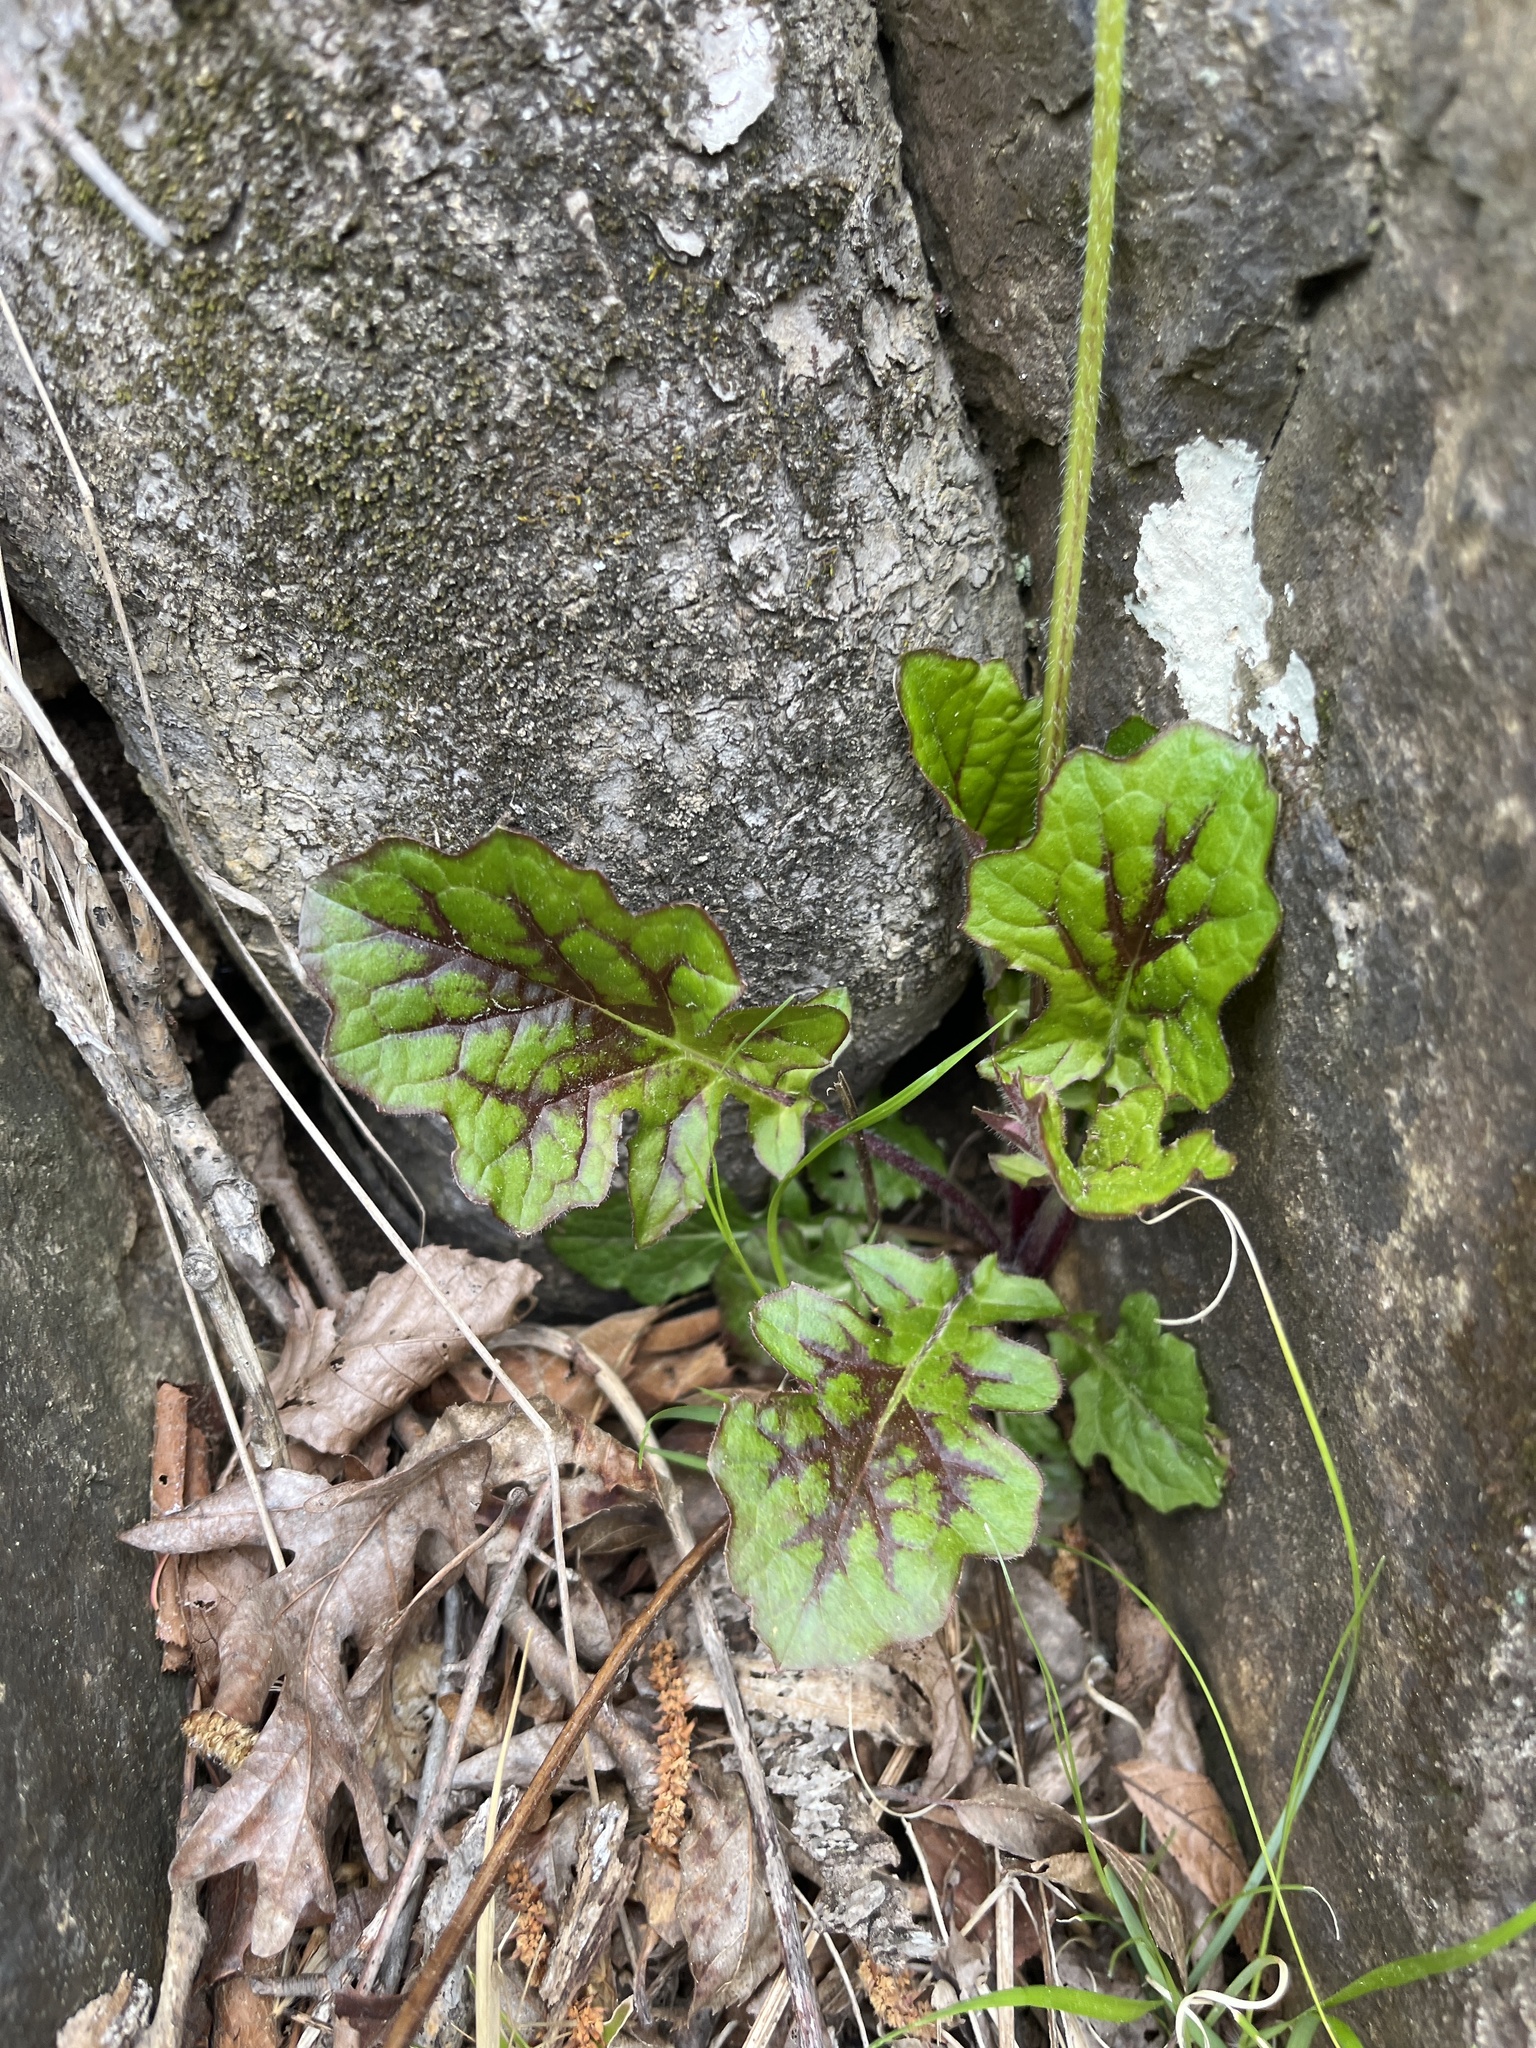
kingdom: Plantae
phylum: Tracheophyta
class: Magnoliopsida
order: Lamiales
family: Lamiaceae
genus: Salvia
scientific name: Salvia lyrata
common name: Cancerweed
